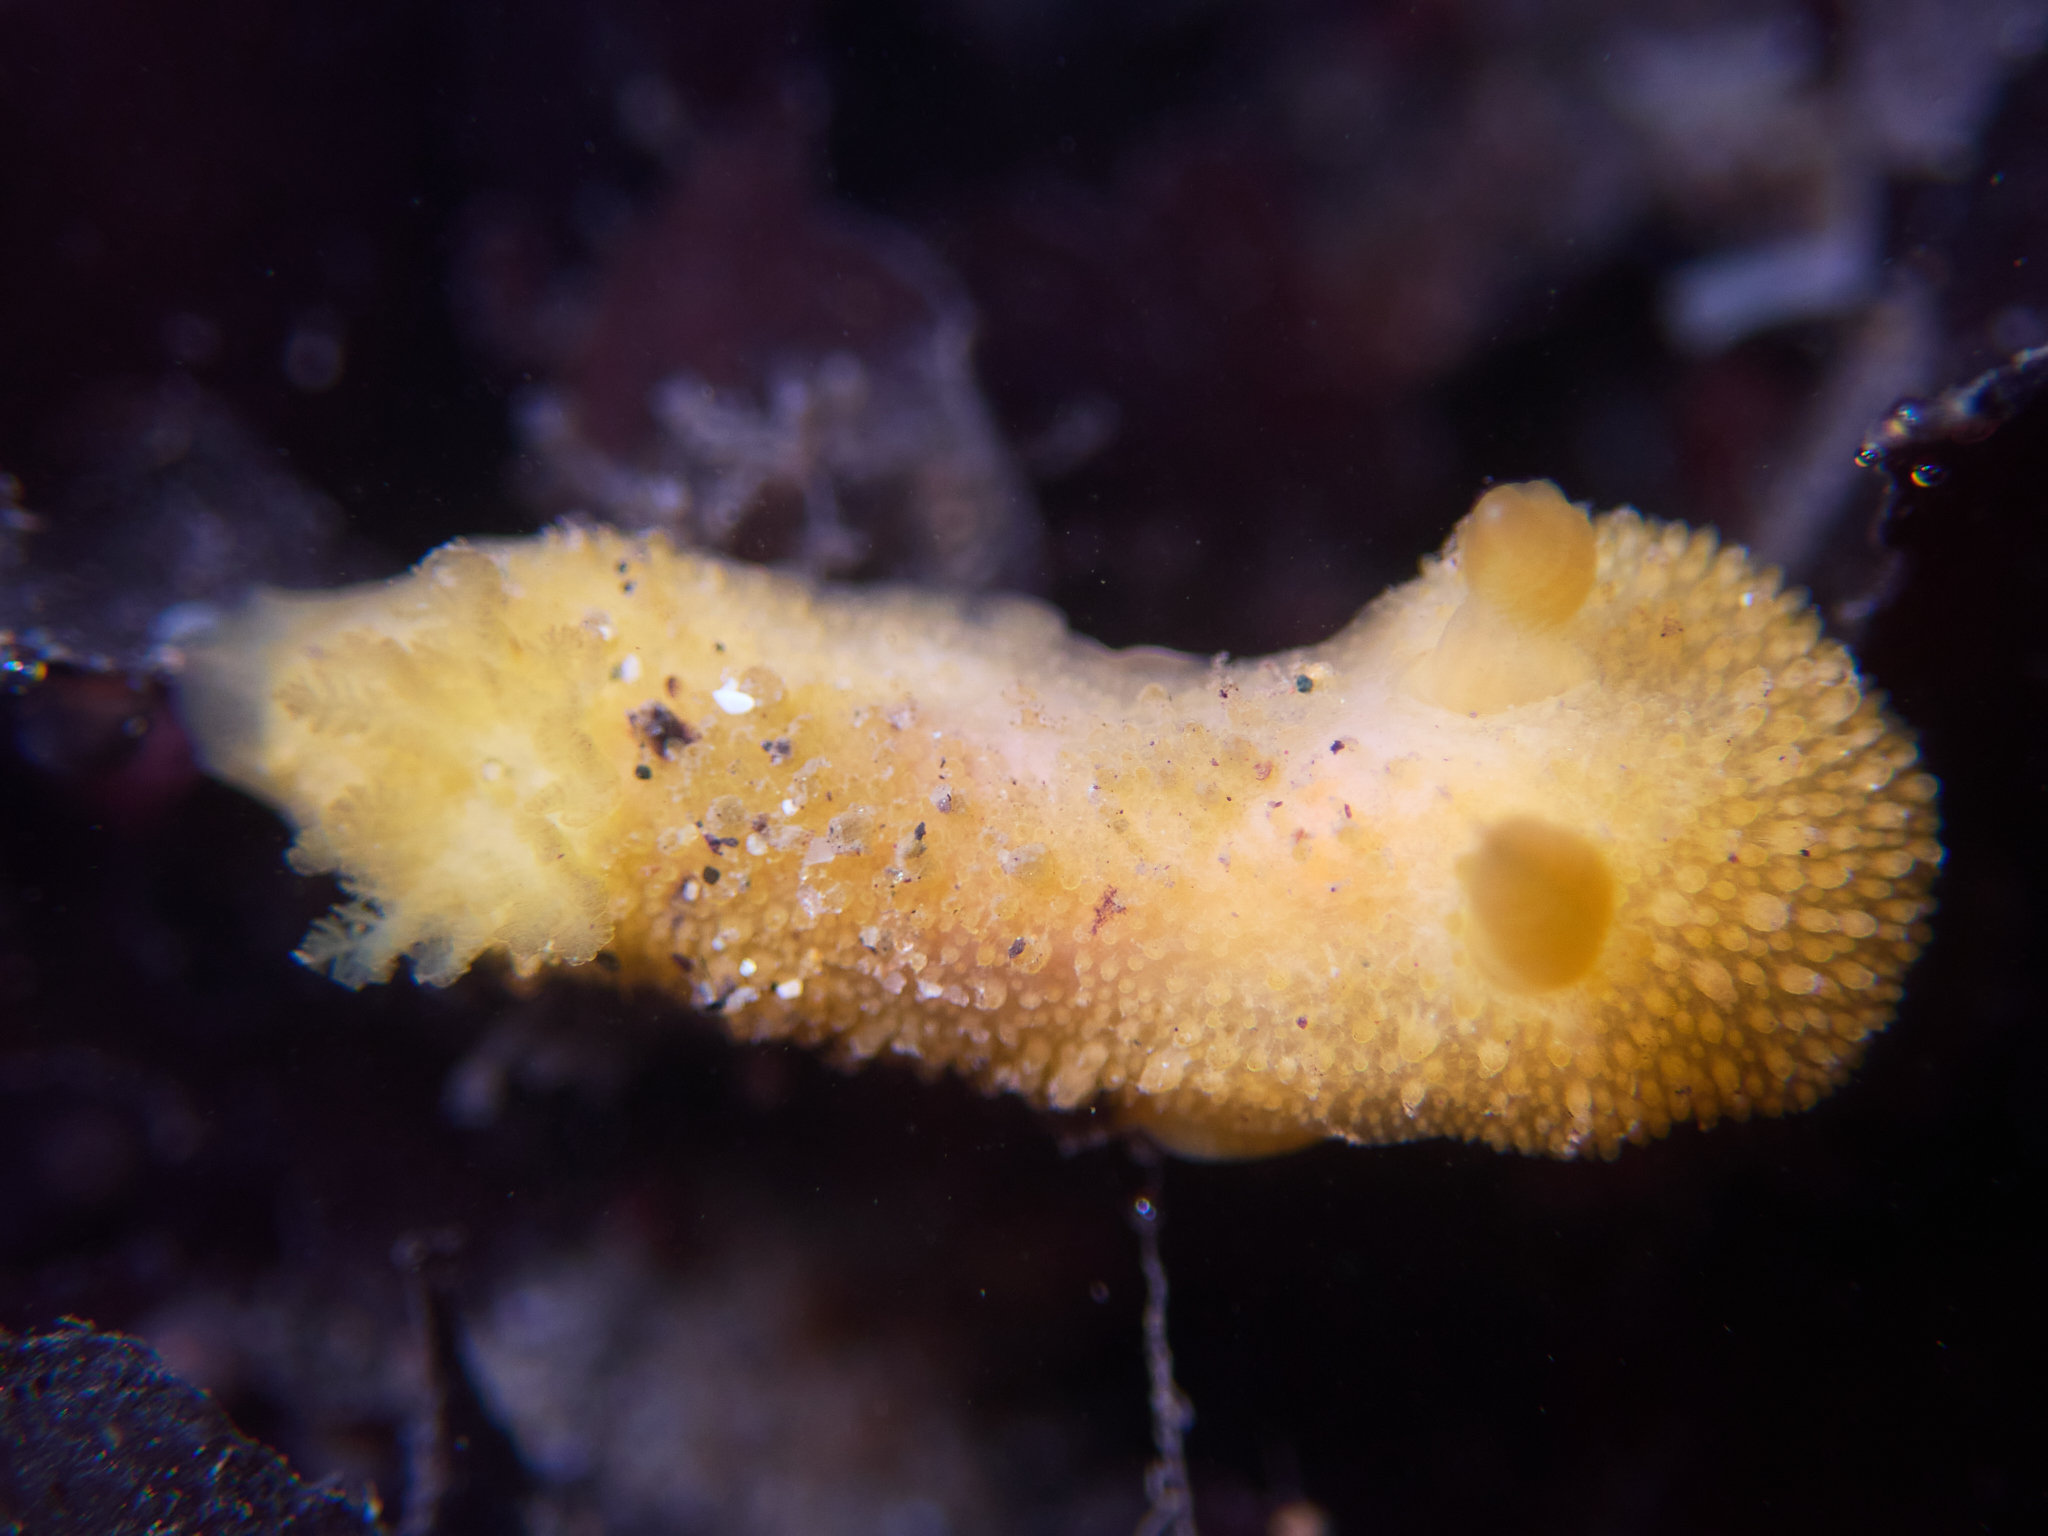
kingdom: Animalia
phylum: Mollusca
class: Gastropoda
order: Nudibranchia
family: Dorididae
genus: Doris
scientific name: Doris montereyensis
